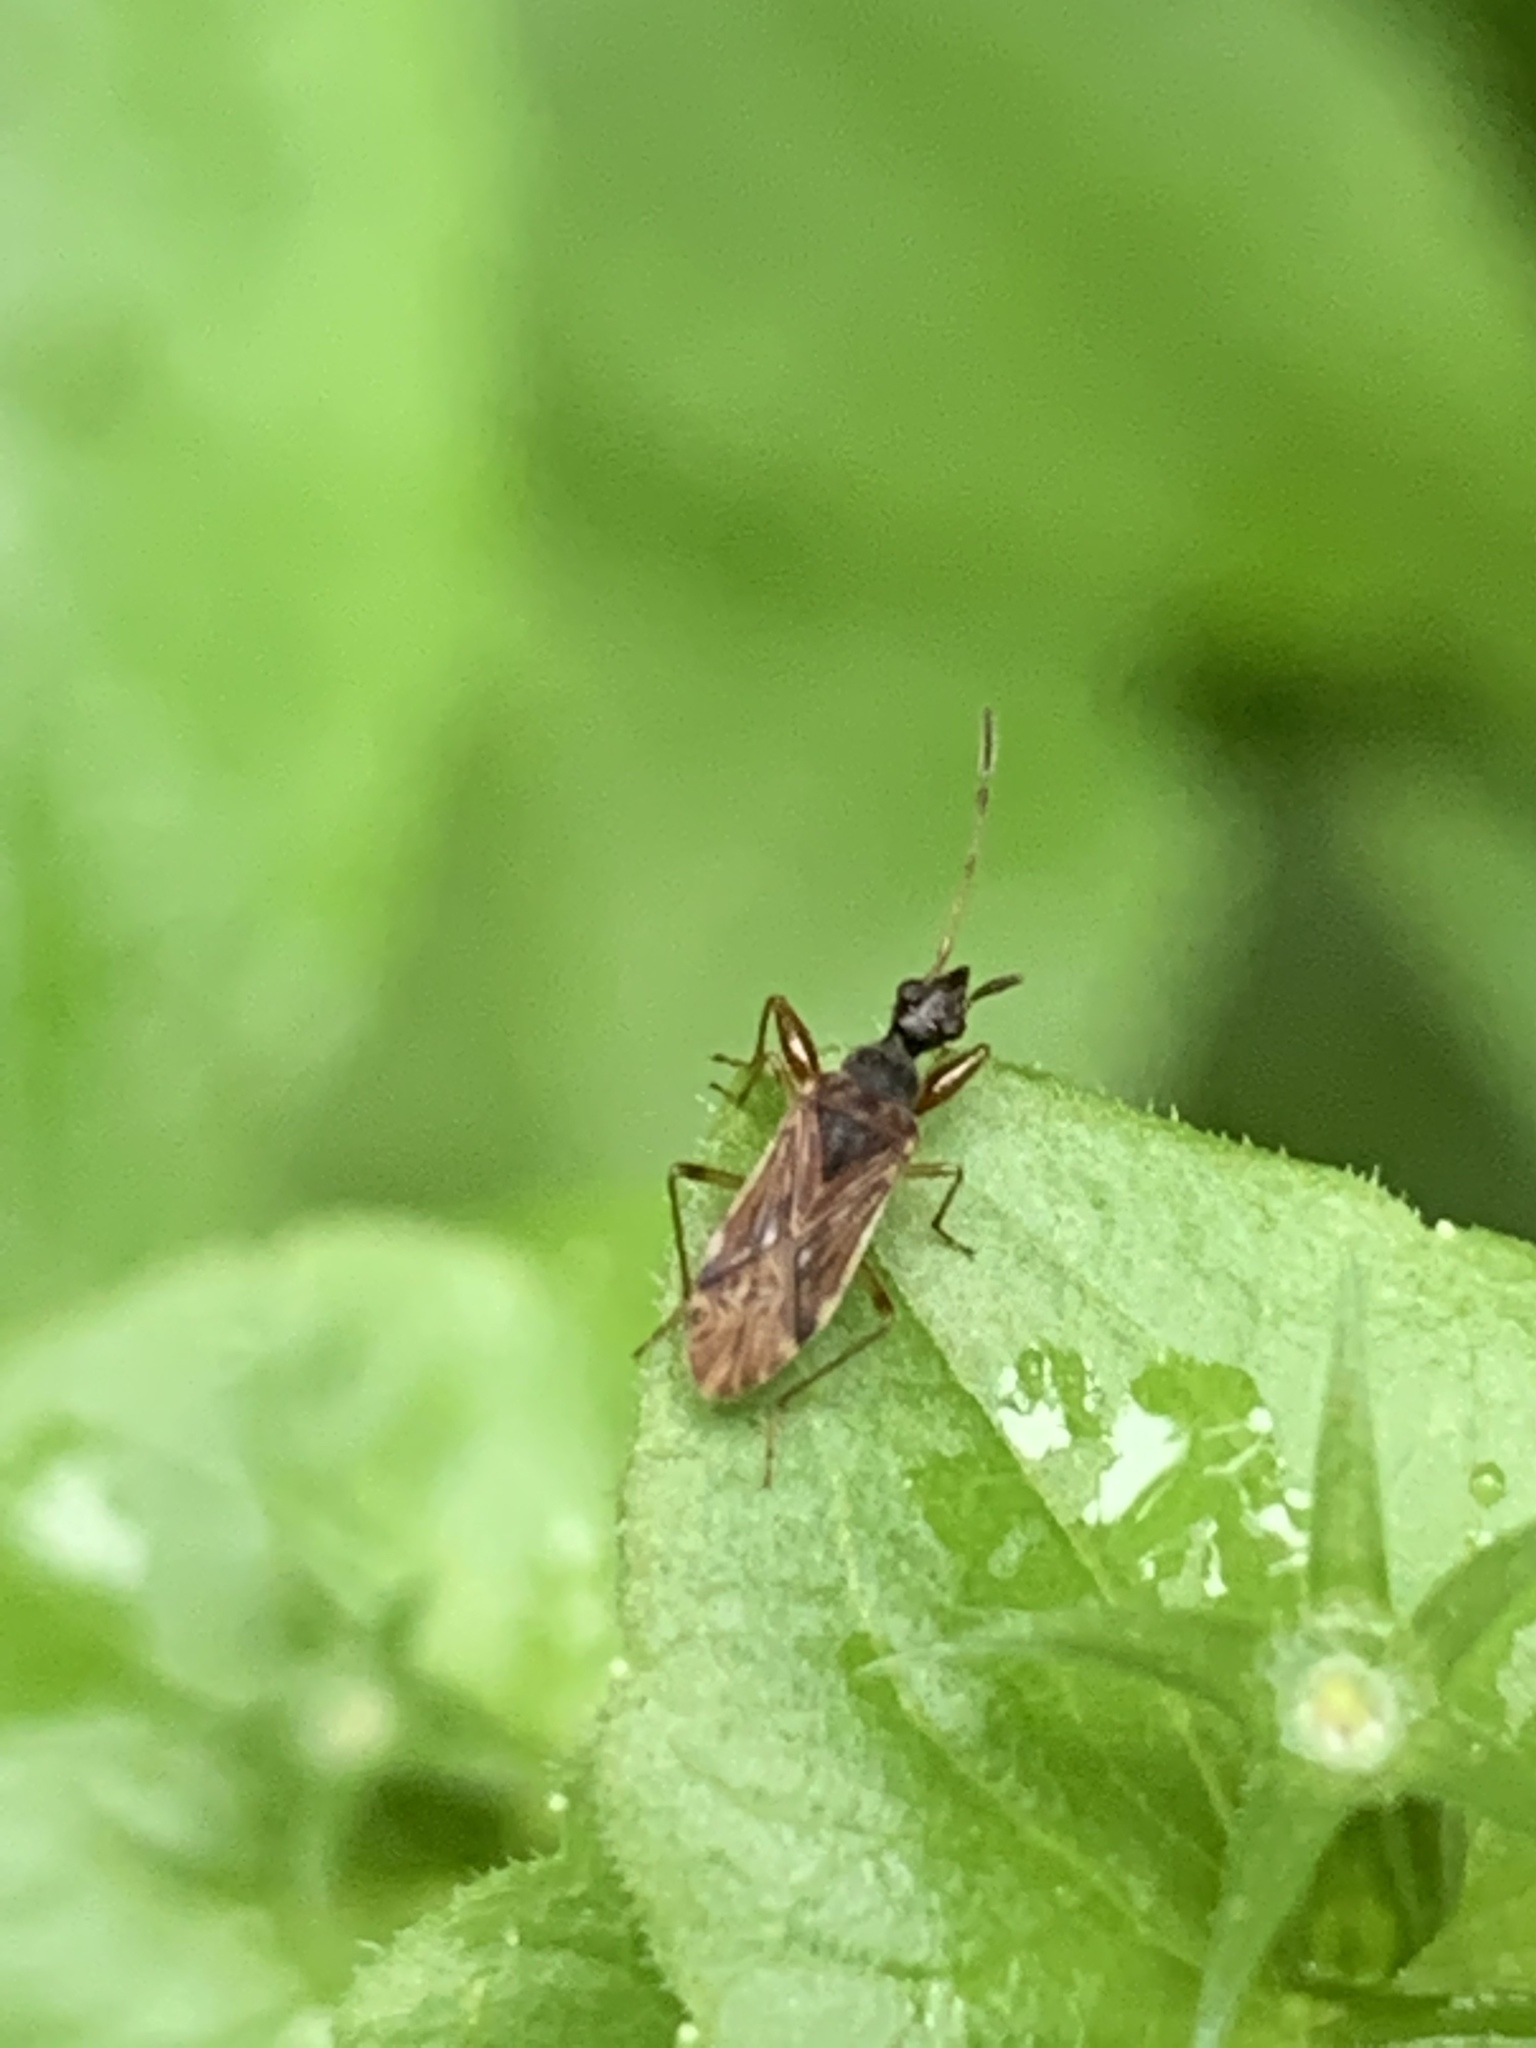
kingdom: Animalia
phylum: Arthropoda
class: Insecta
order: Hemiptera
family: Rhyparochromidae
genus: Heraeus
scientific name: Heraeus plebejus
